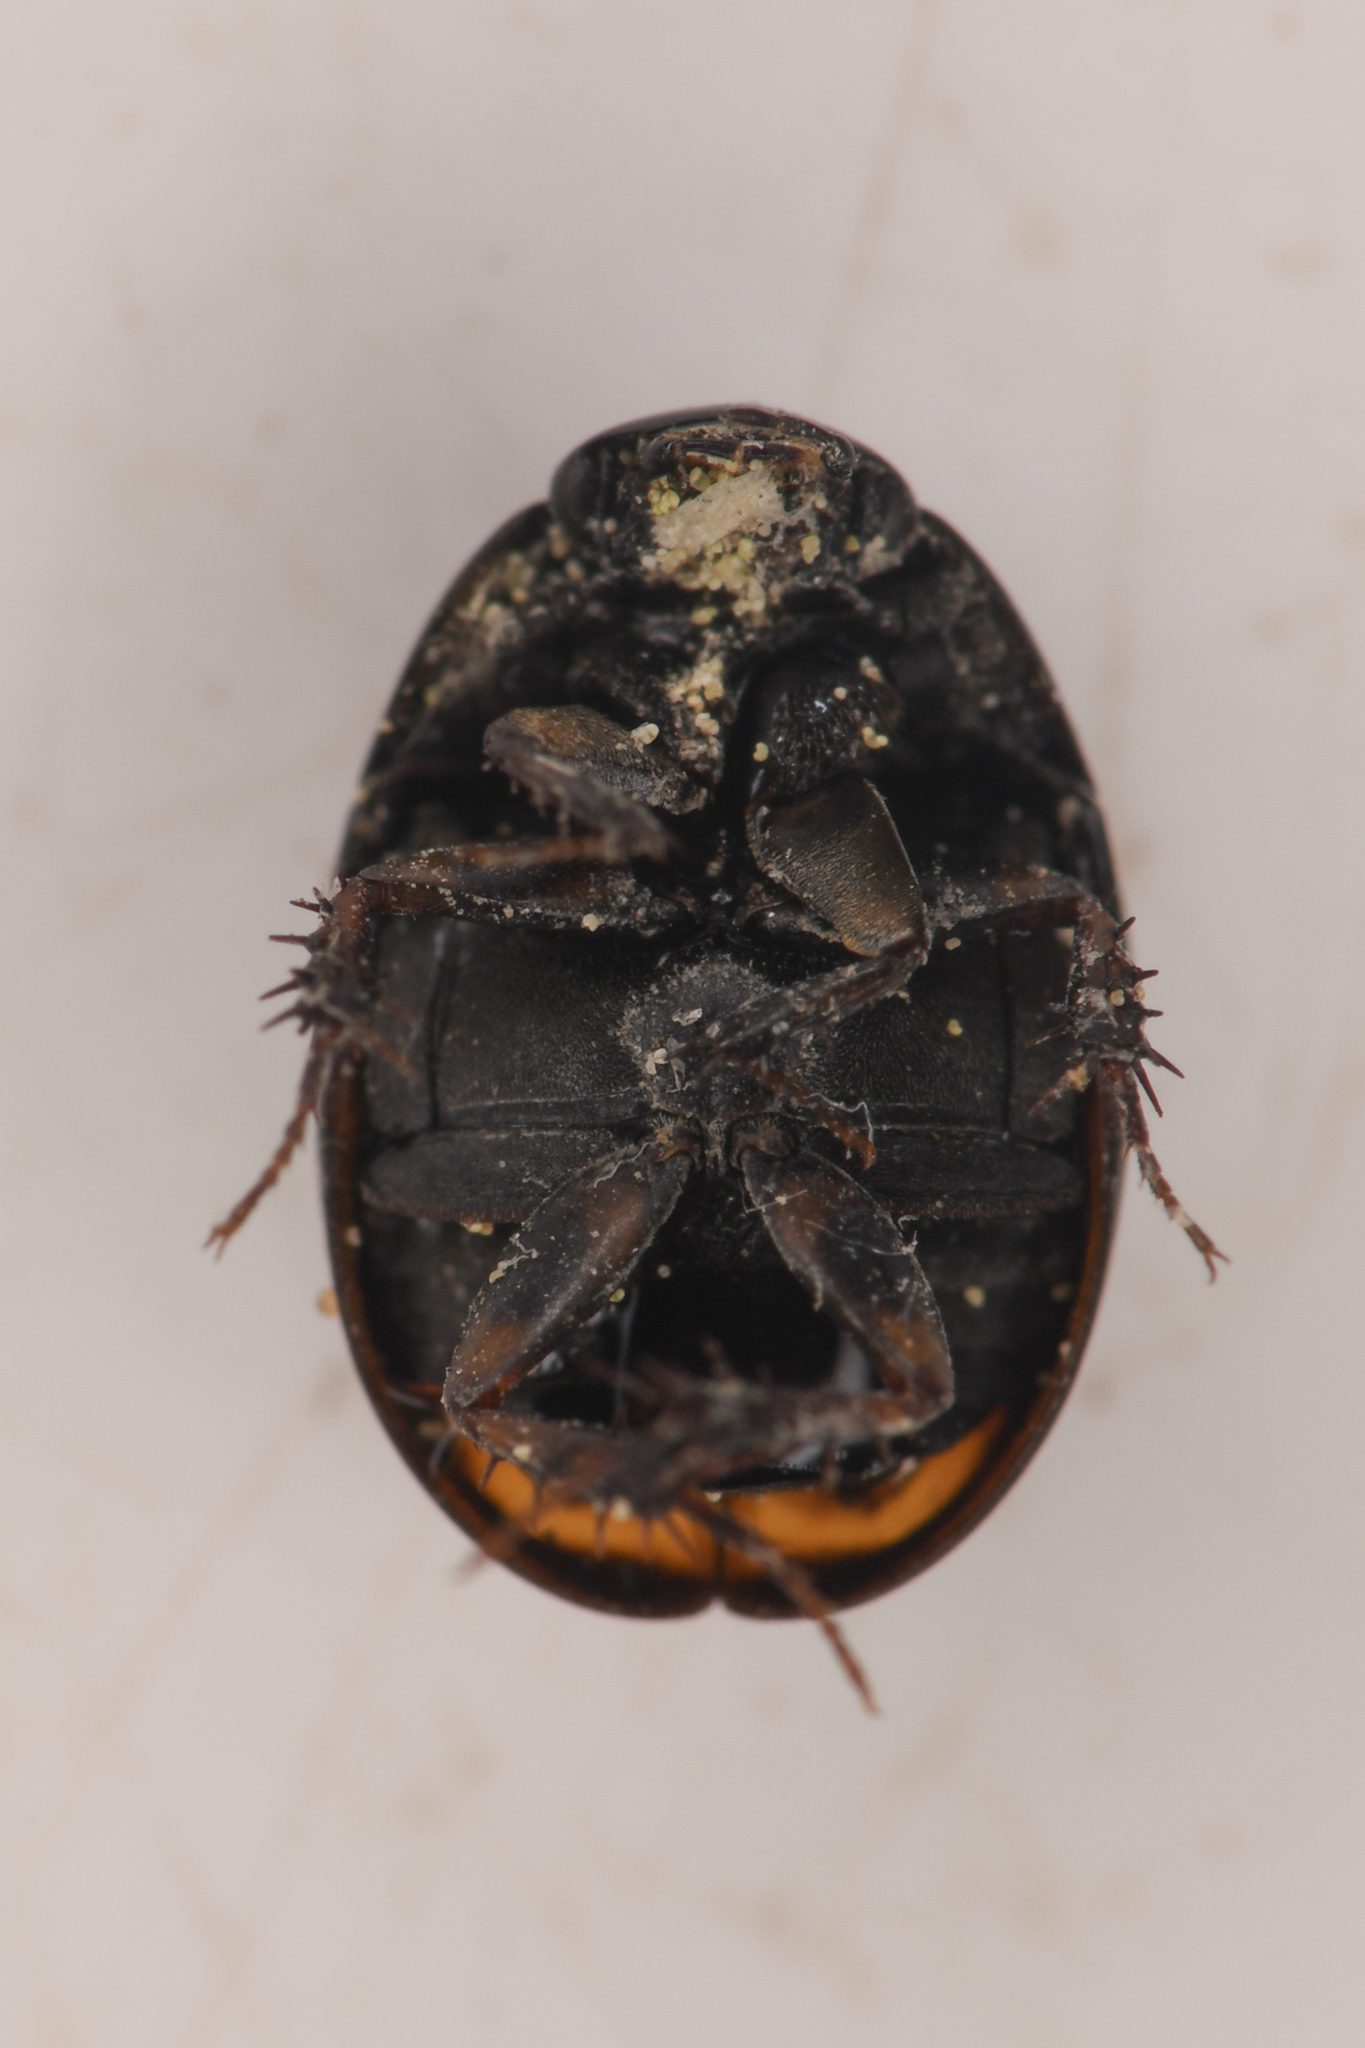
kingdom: Animalia
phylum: Arthropoda
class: Insecta
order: Coleoptera
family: Hydrophilidae
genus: Sphaeridium
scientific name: Sphaeridium bipustulatum
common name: Water scavenger beetle
